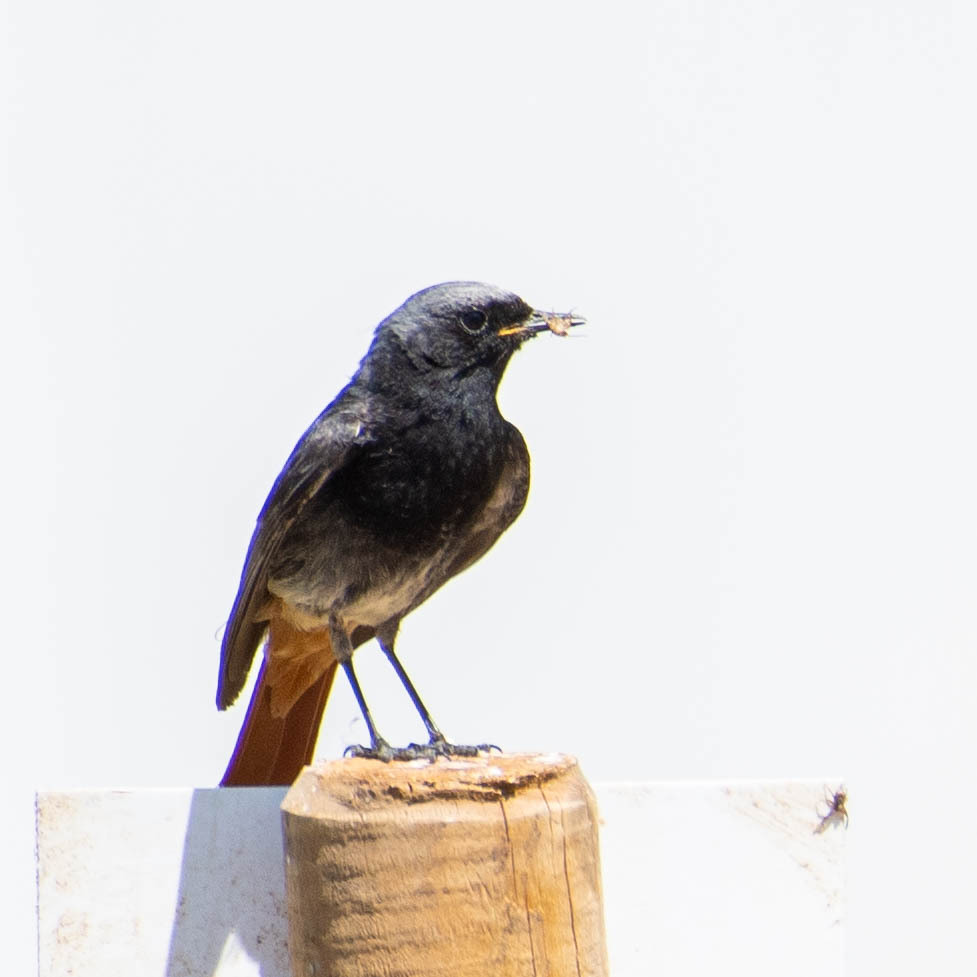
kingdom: Animalia
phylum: Chordata
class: Aves
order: Passeriformes
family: Muscicapidae
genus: Phoenicurus
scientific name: Phoenicurus ochruros
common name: Black redstart
